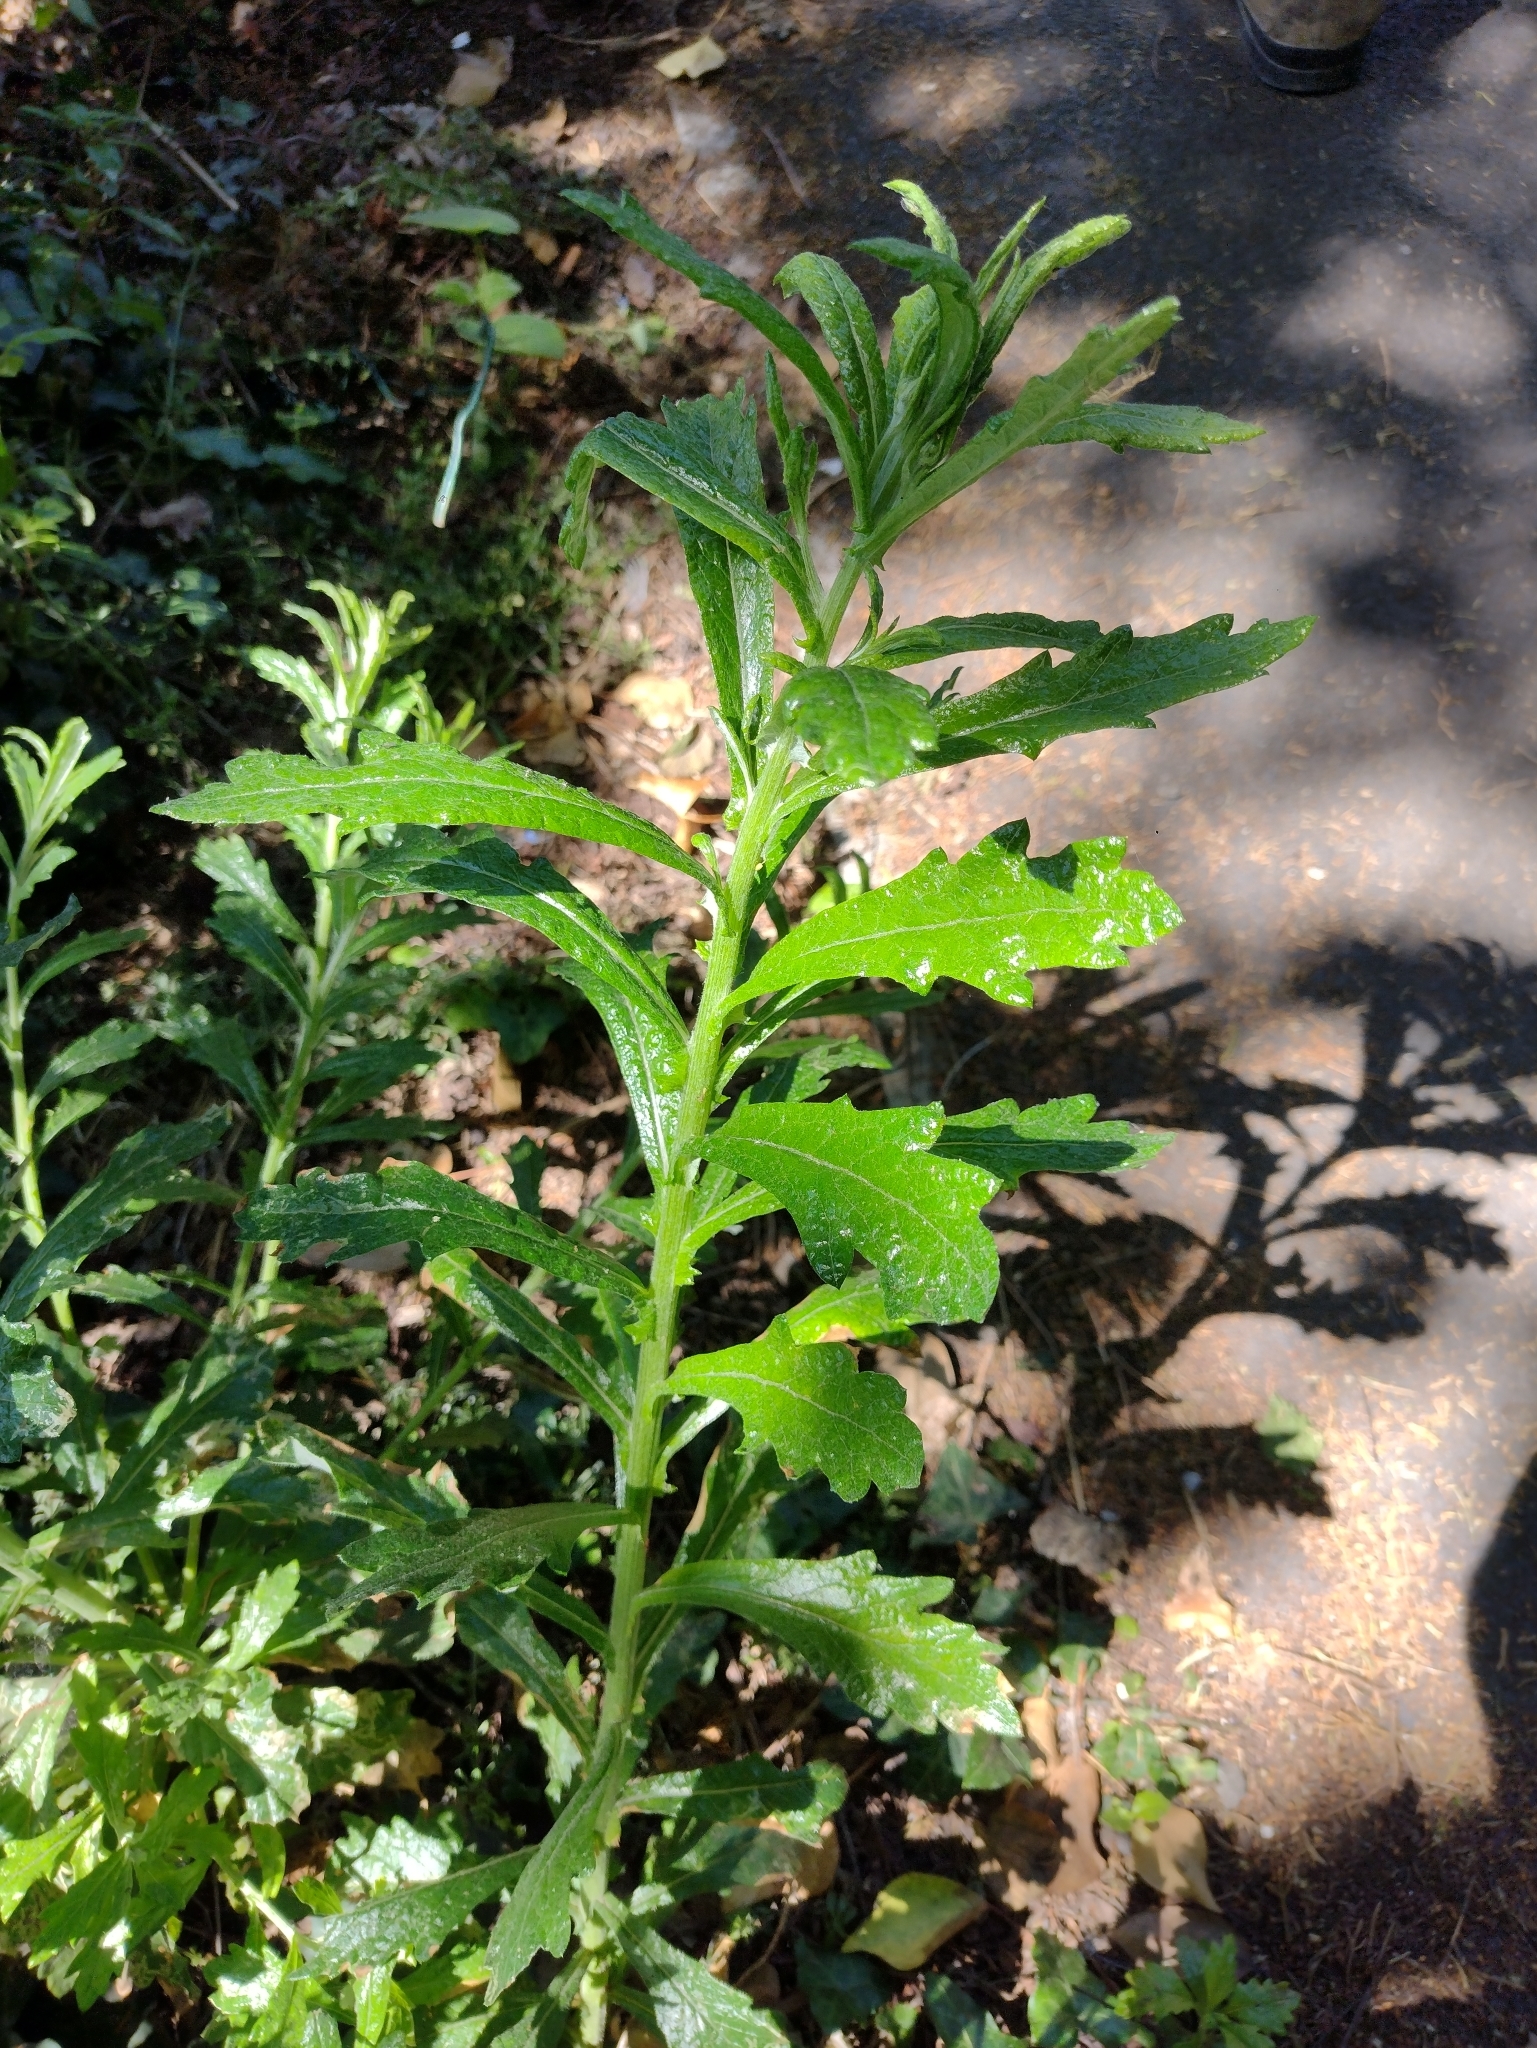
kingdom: Plantae
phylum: Tracheophyta
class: Magnoliopsida
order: Asterales
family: Asteraceae
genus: Senecio
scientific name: Senecio pterophorus
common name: Shoddy ragwort
